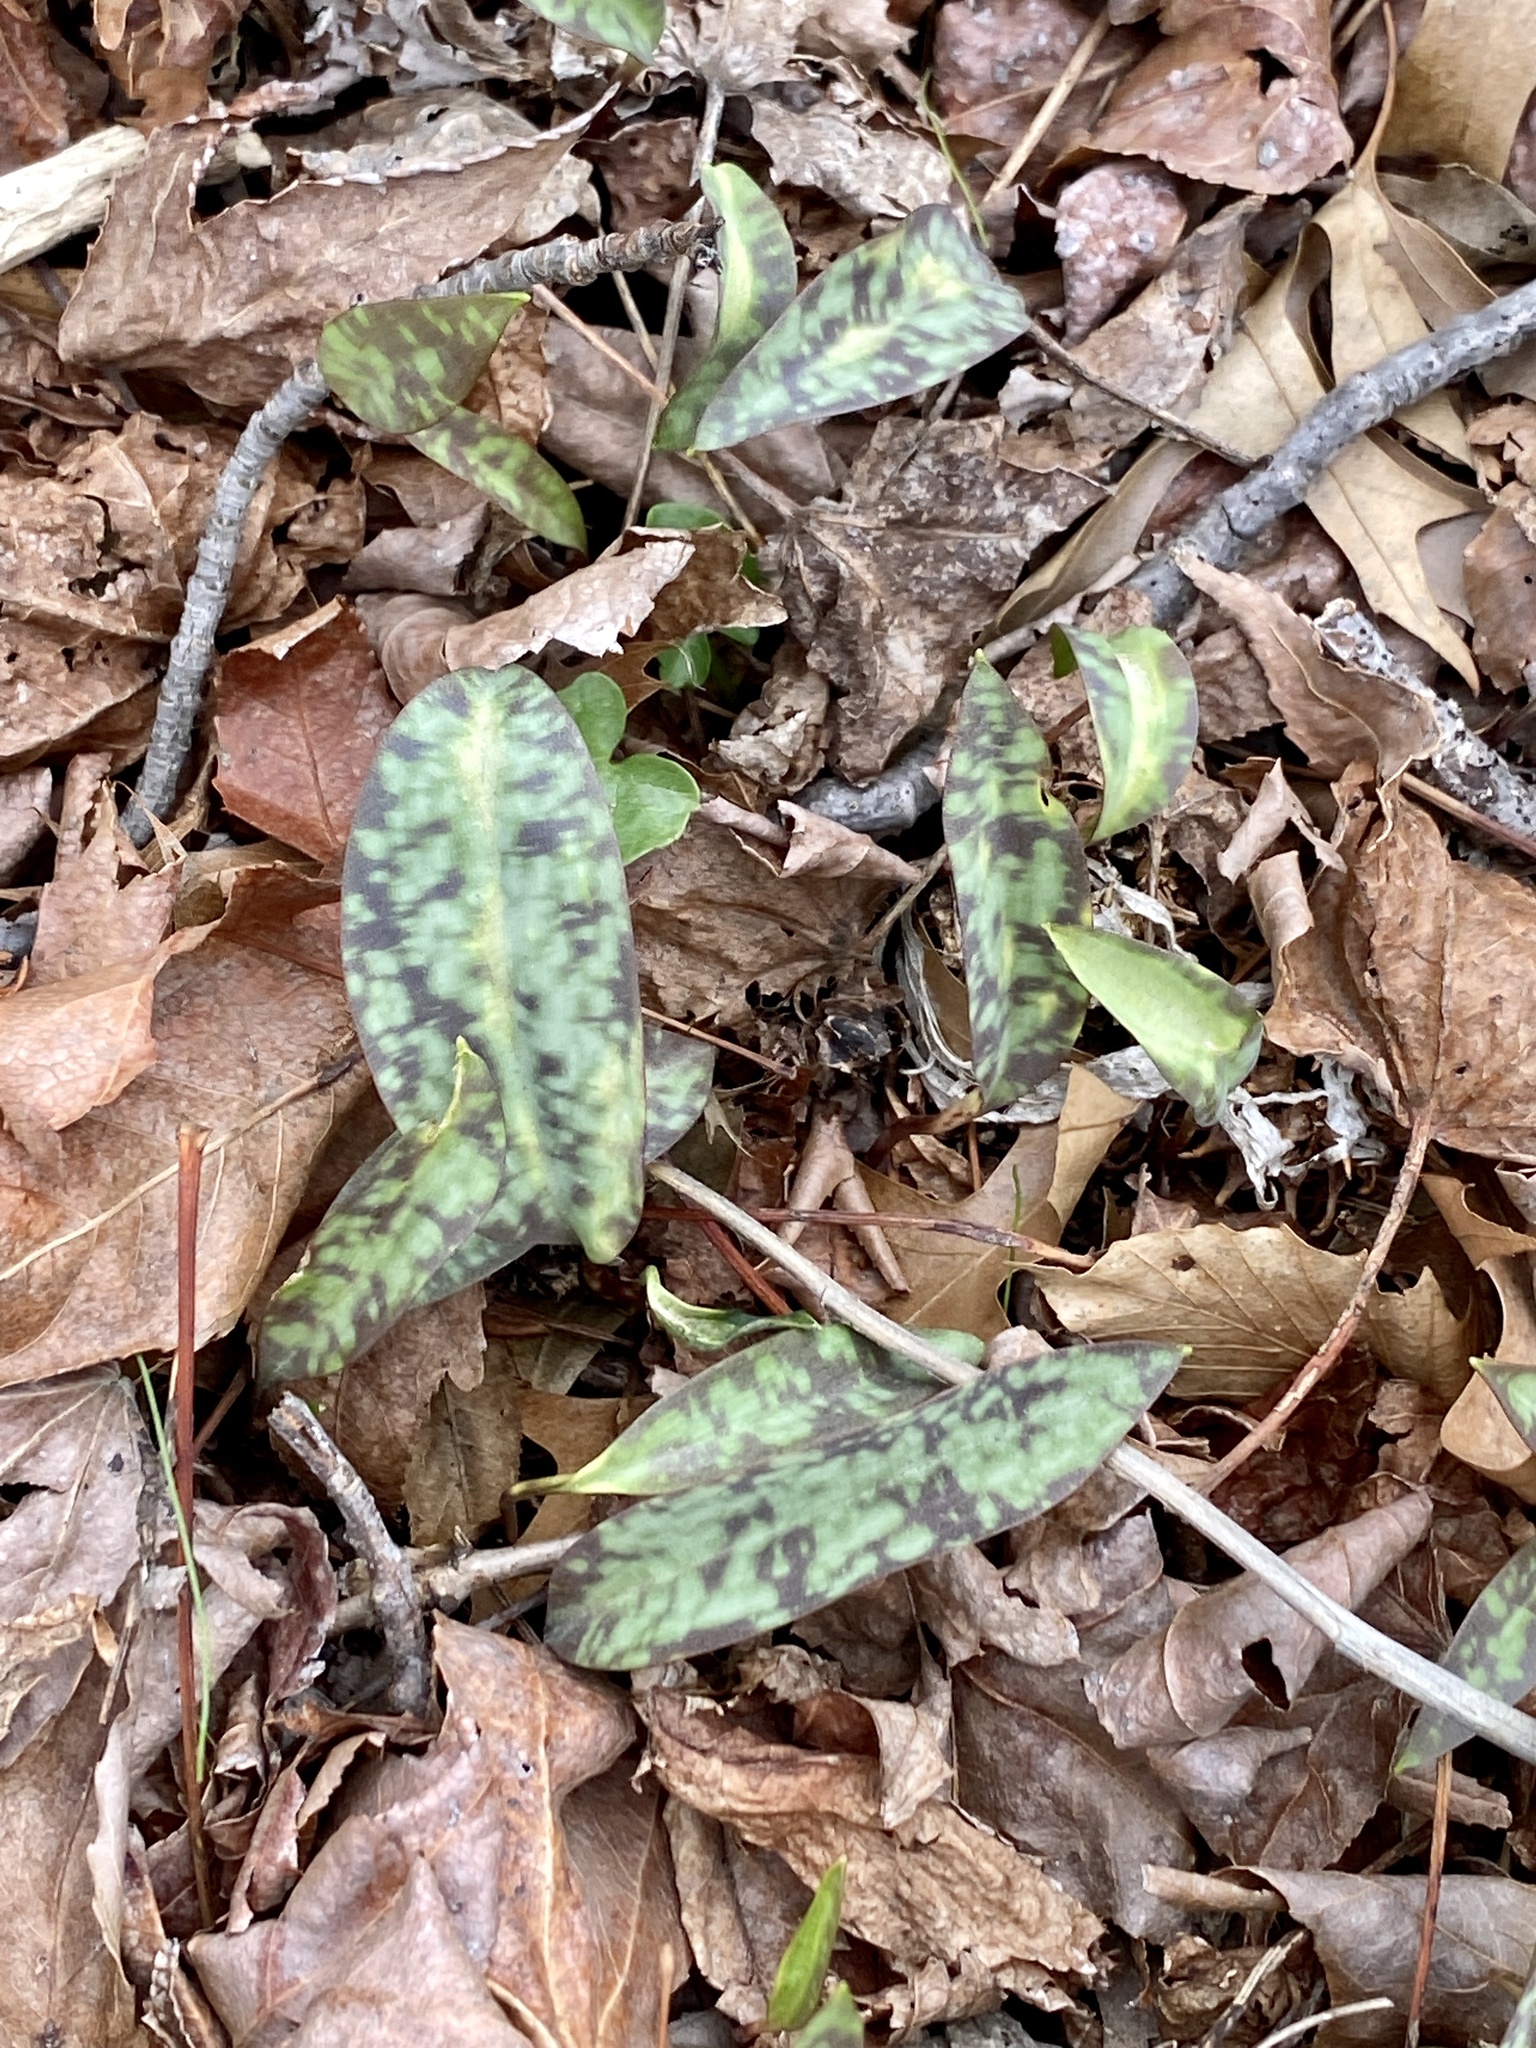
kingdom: Plantae
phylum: Tracheophyta
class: Liliopsida
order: Liliales
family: Liliaceae
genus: Erythronium
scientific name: Erythronium americanum
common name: Yellow adder's-tongue
